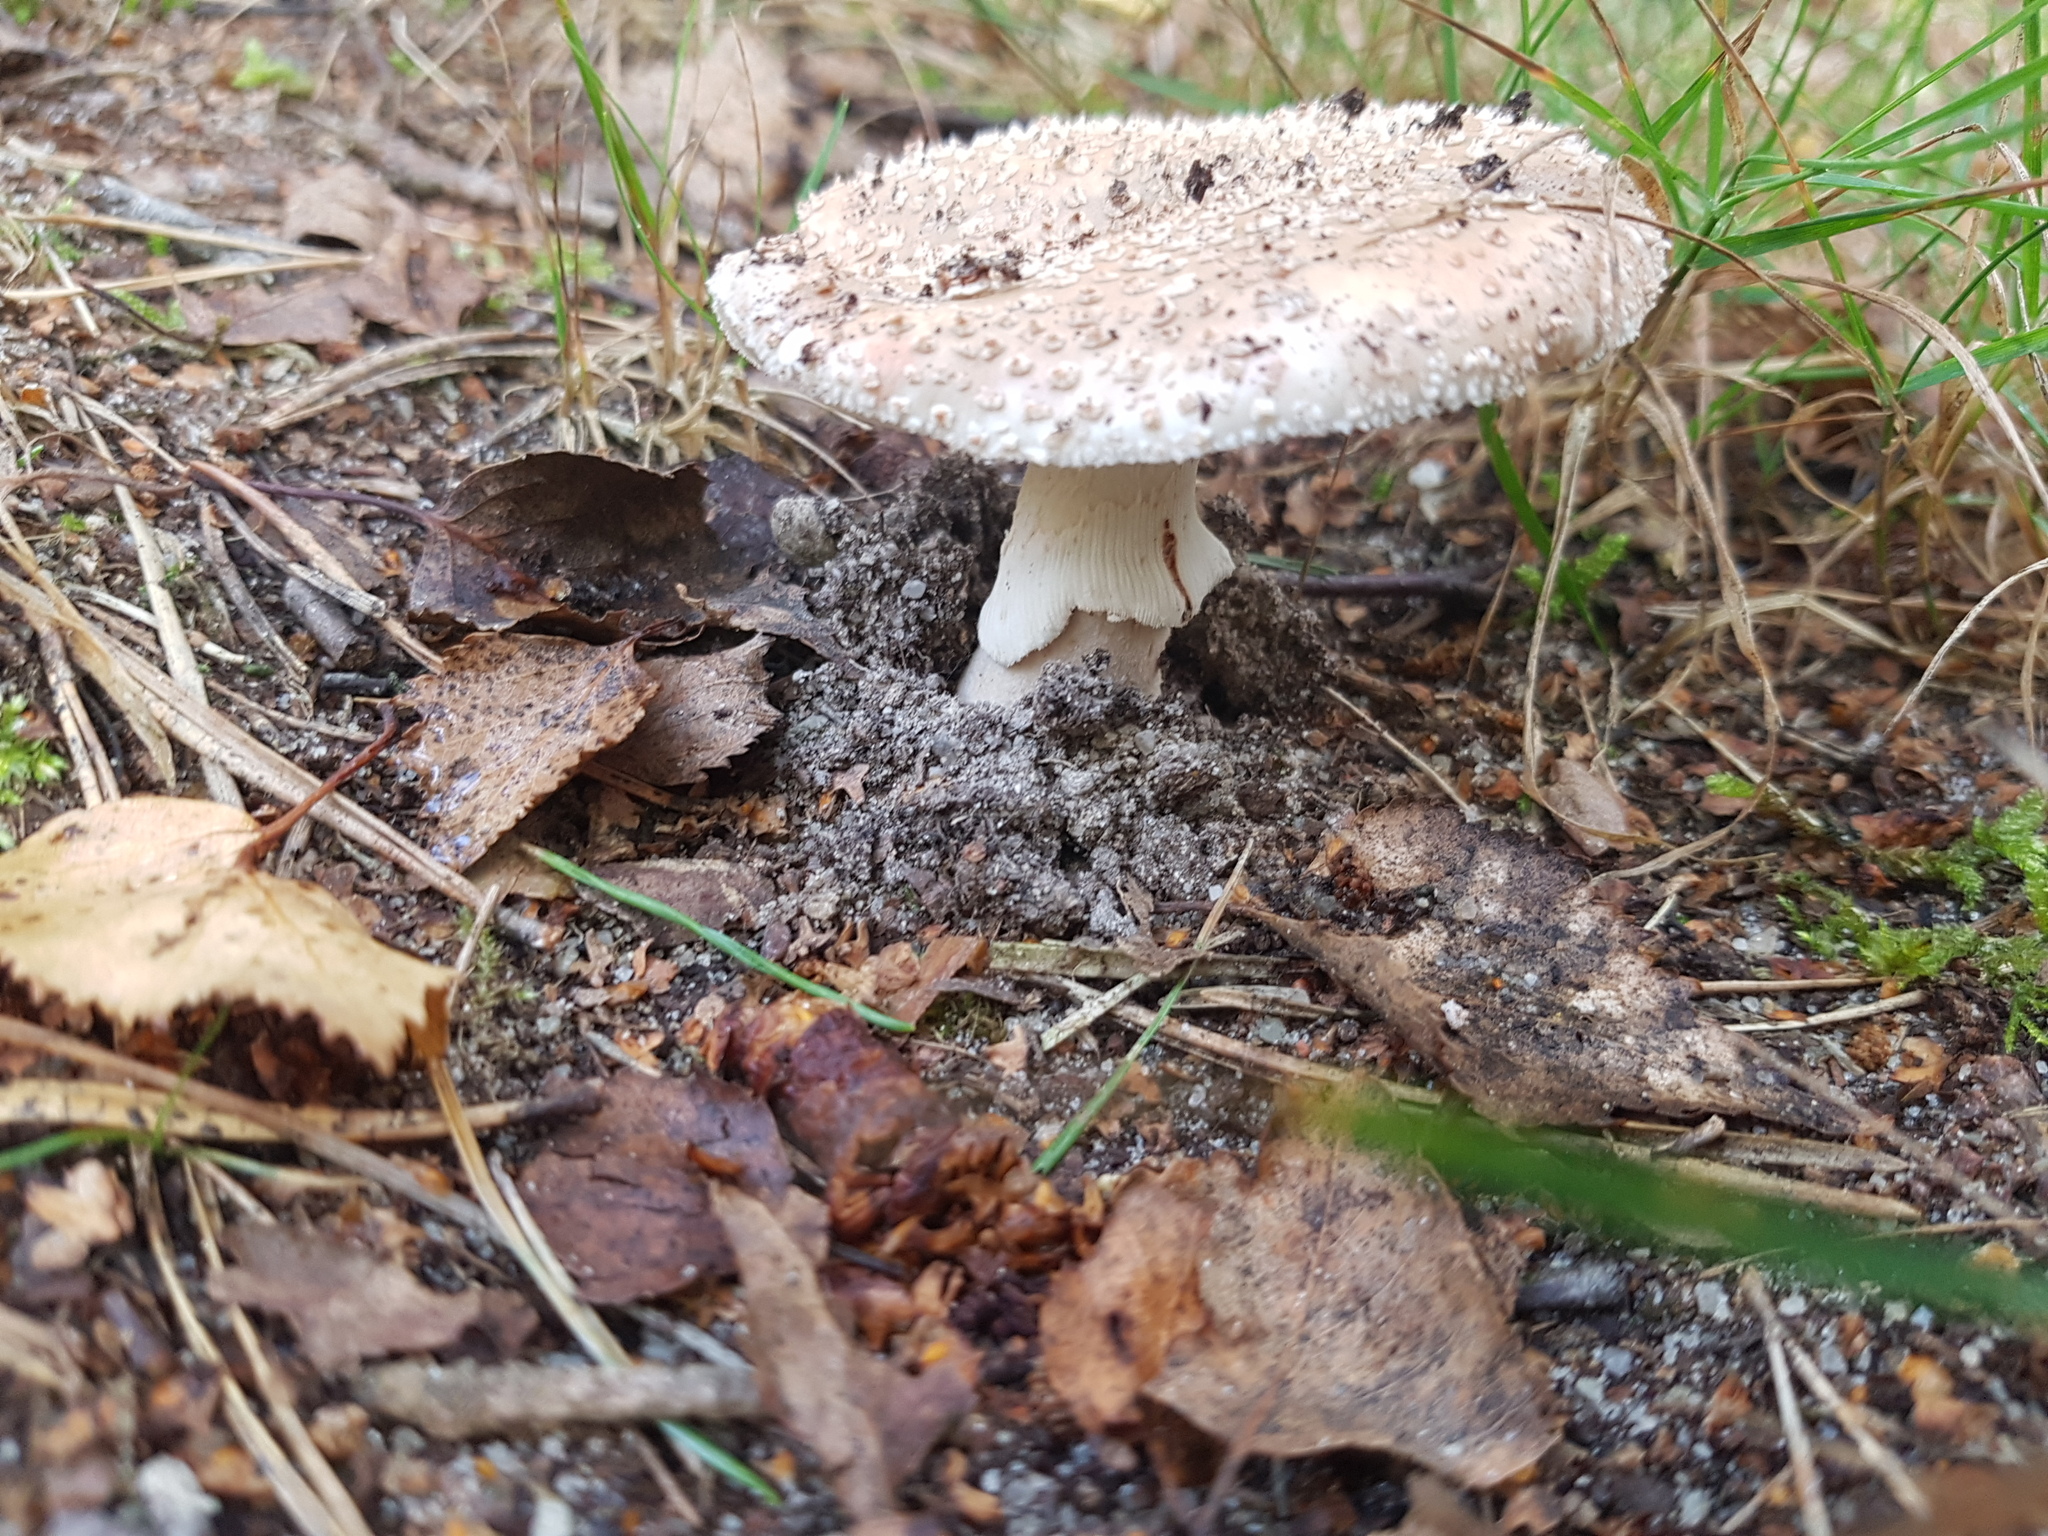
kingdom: Fungi
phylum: Basidiomycota
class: Agaricomycetes
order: Agaricales
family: Amanitaceae
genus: Amanita
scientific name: Amanita rubescens
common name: Blusher
